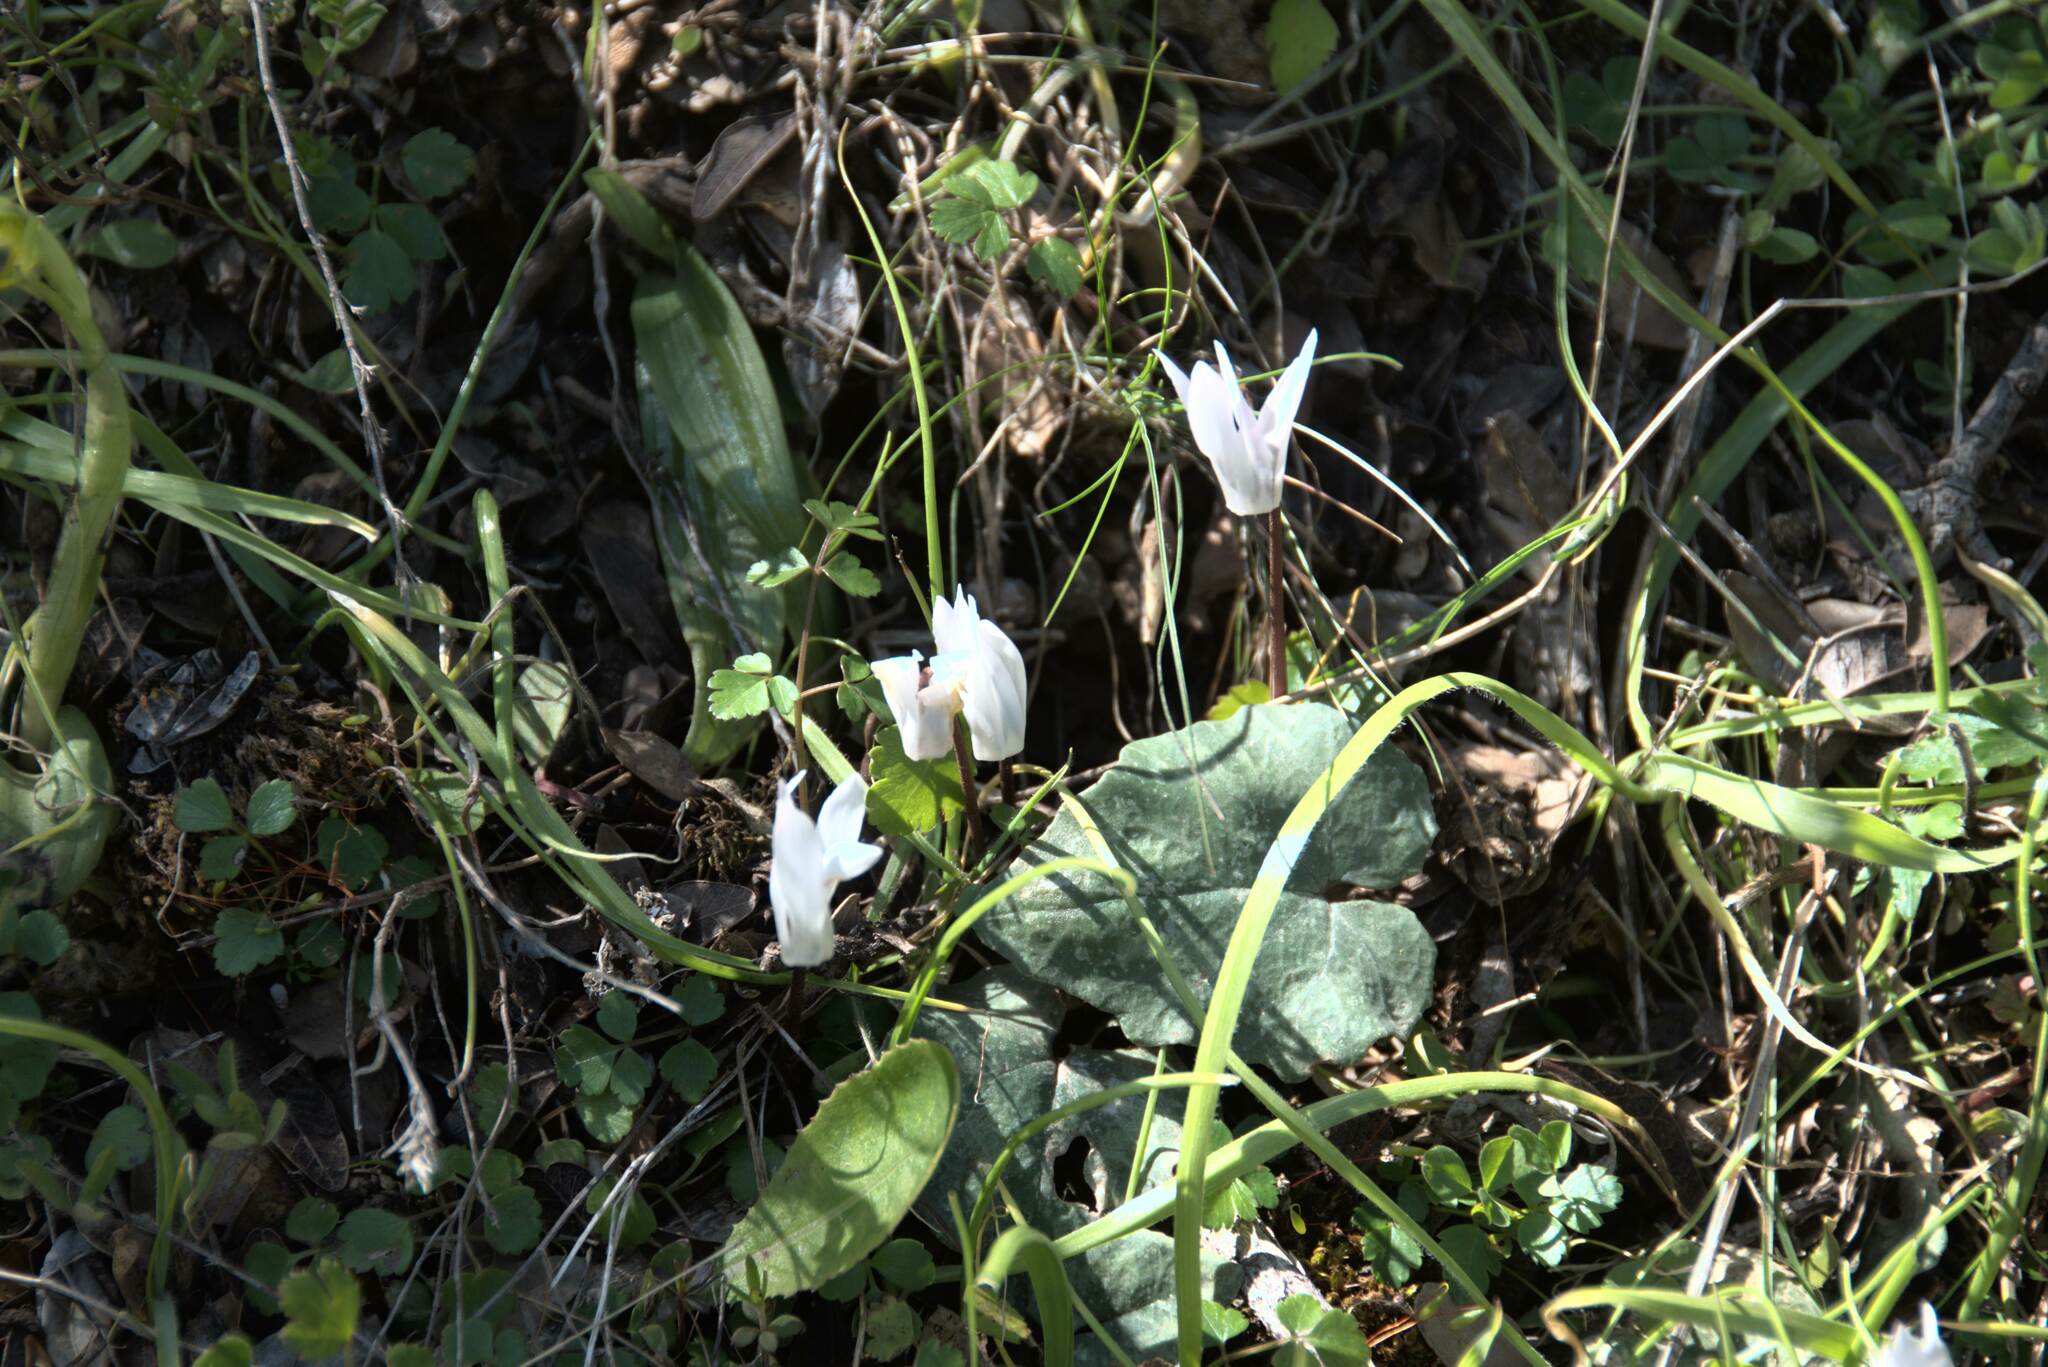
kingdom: Plantae
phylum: Tracheophyta
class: Magnoliopsida
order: Ericales
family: Primulaceae
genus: Cyclamen
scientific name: Cyclamen creticum
